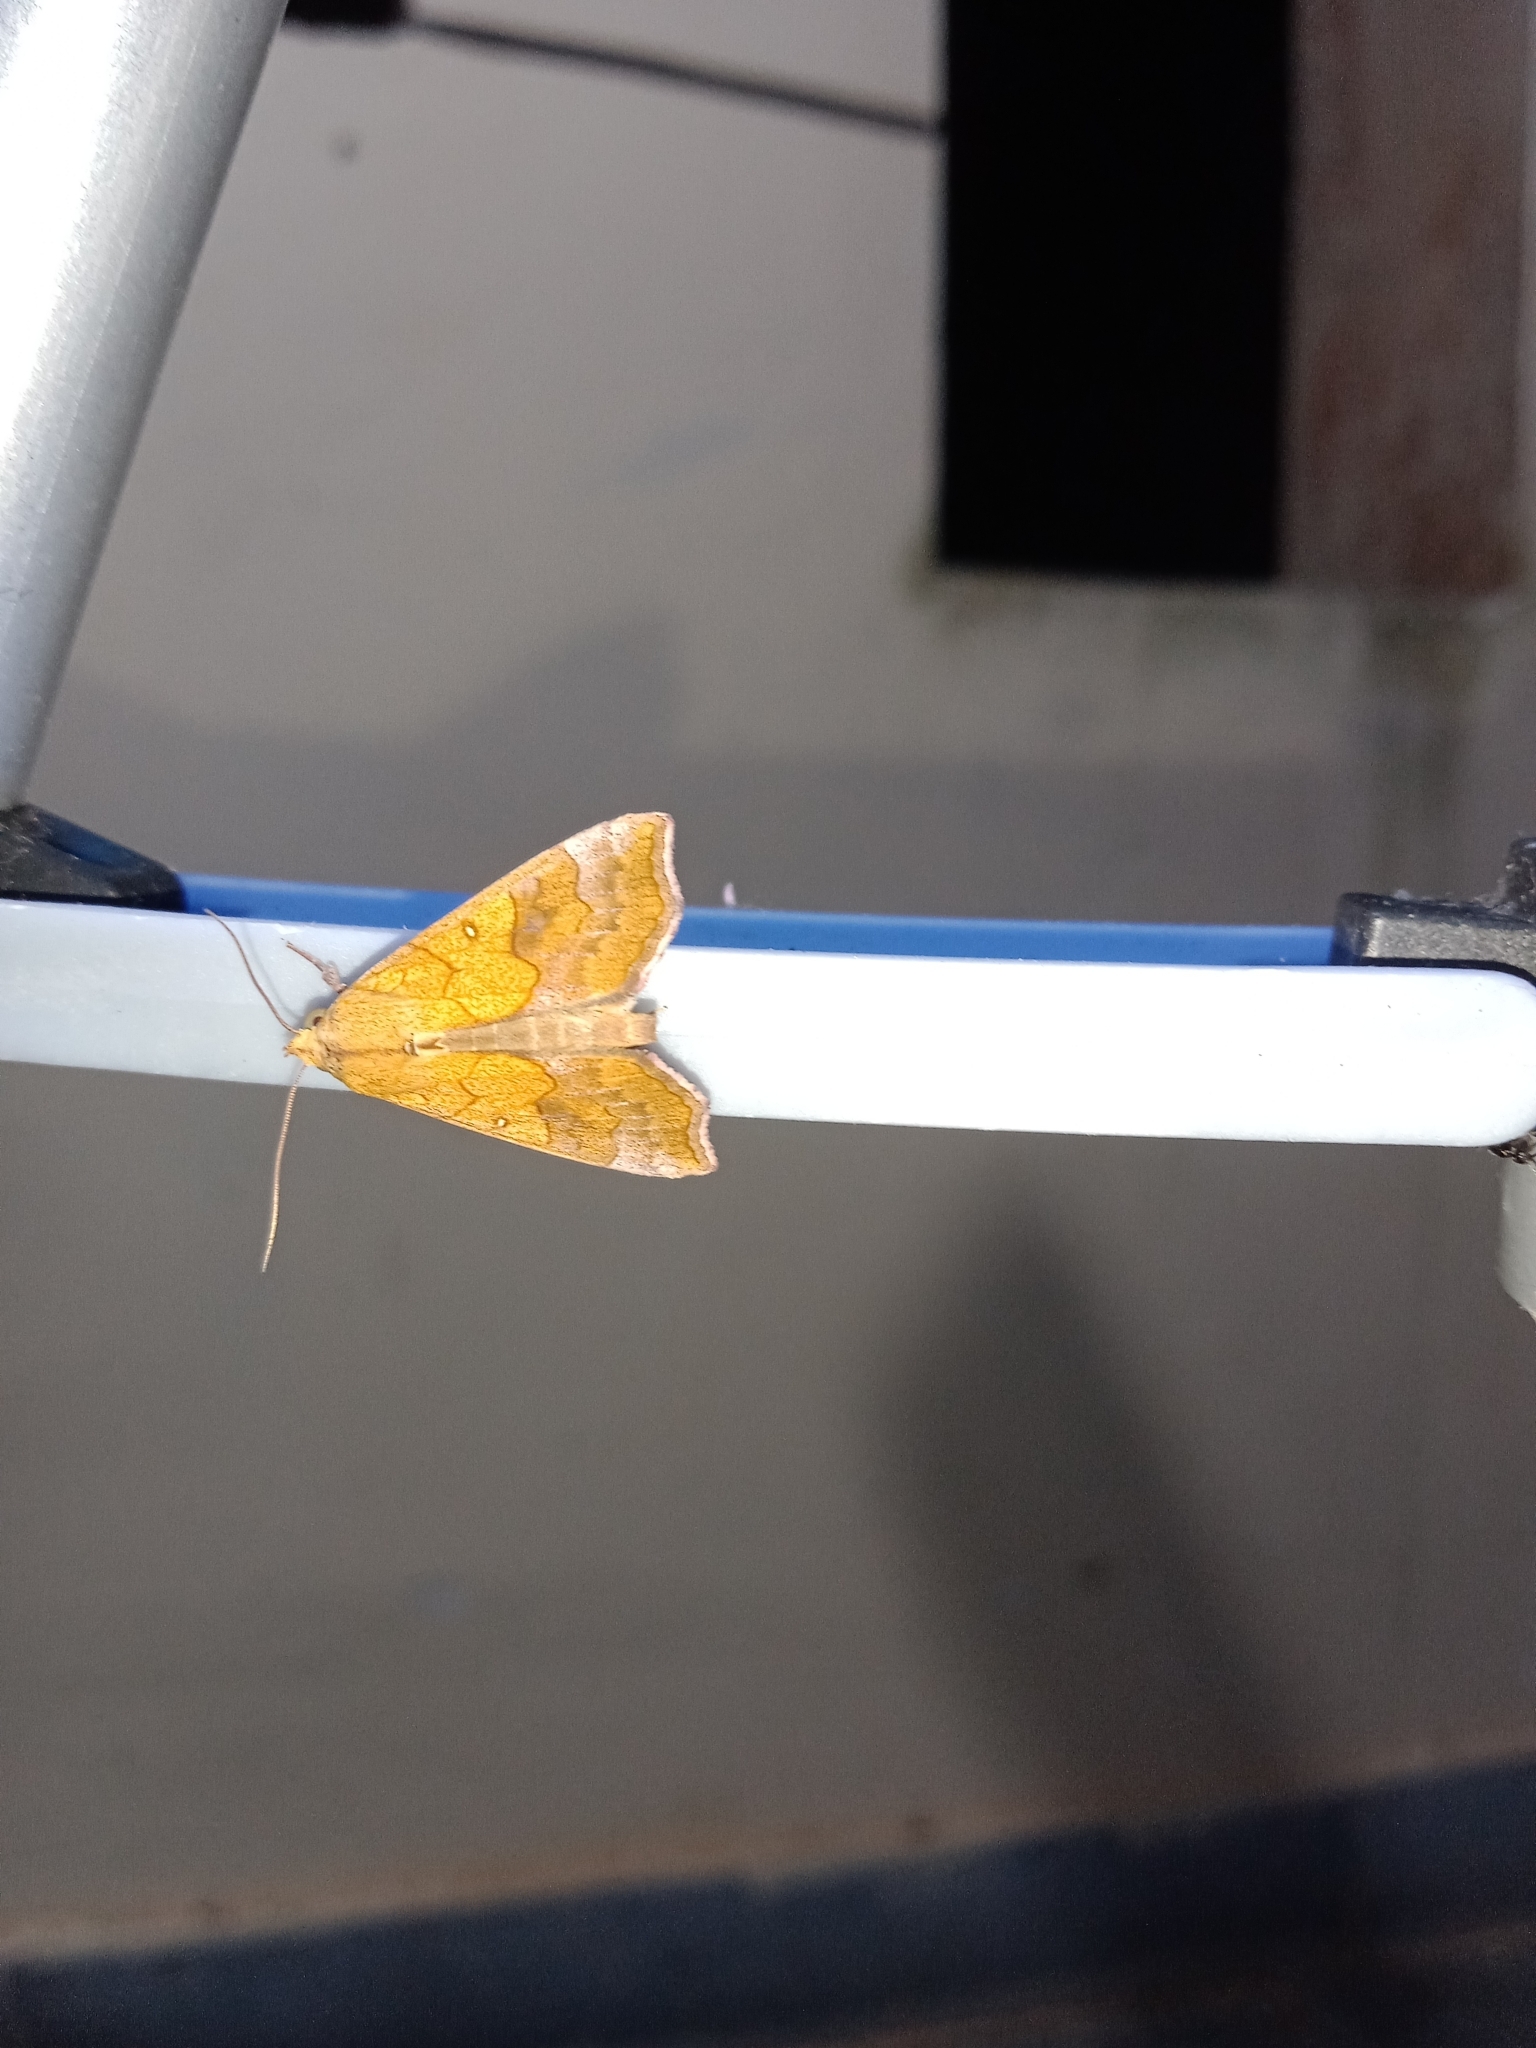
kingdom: Animalia
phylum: Arthropoda
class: Insecta
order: Lepidoptera
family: Erebidae
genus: Anomis
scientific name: Anomis flava
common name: Moth
